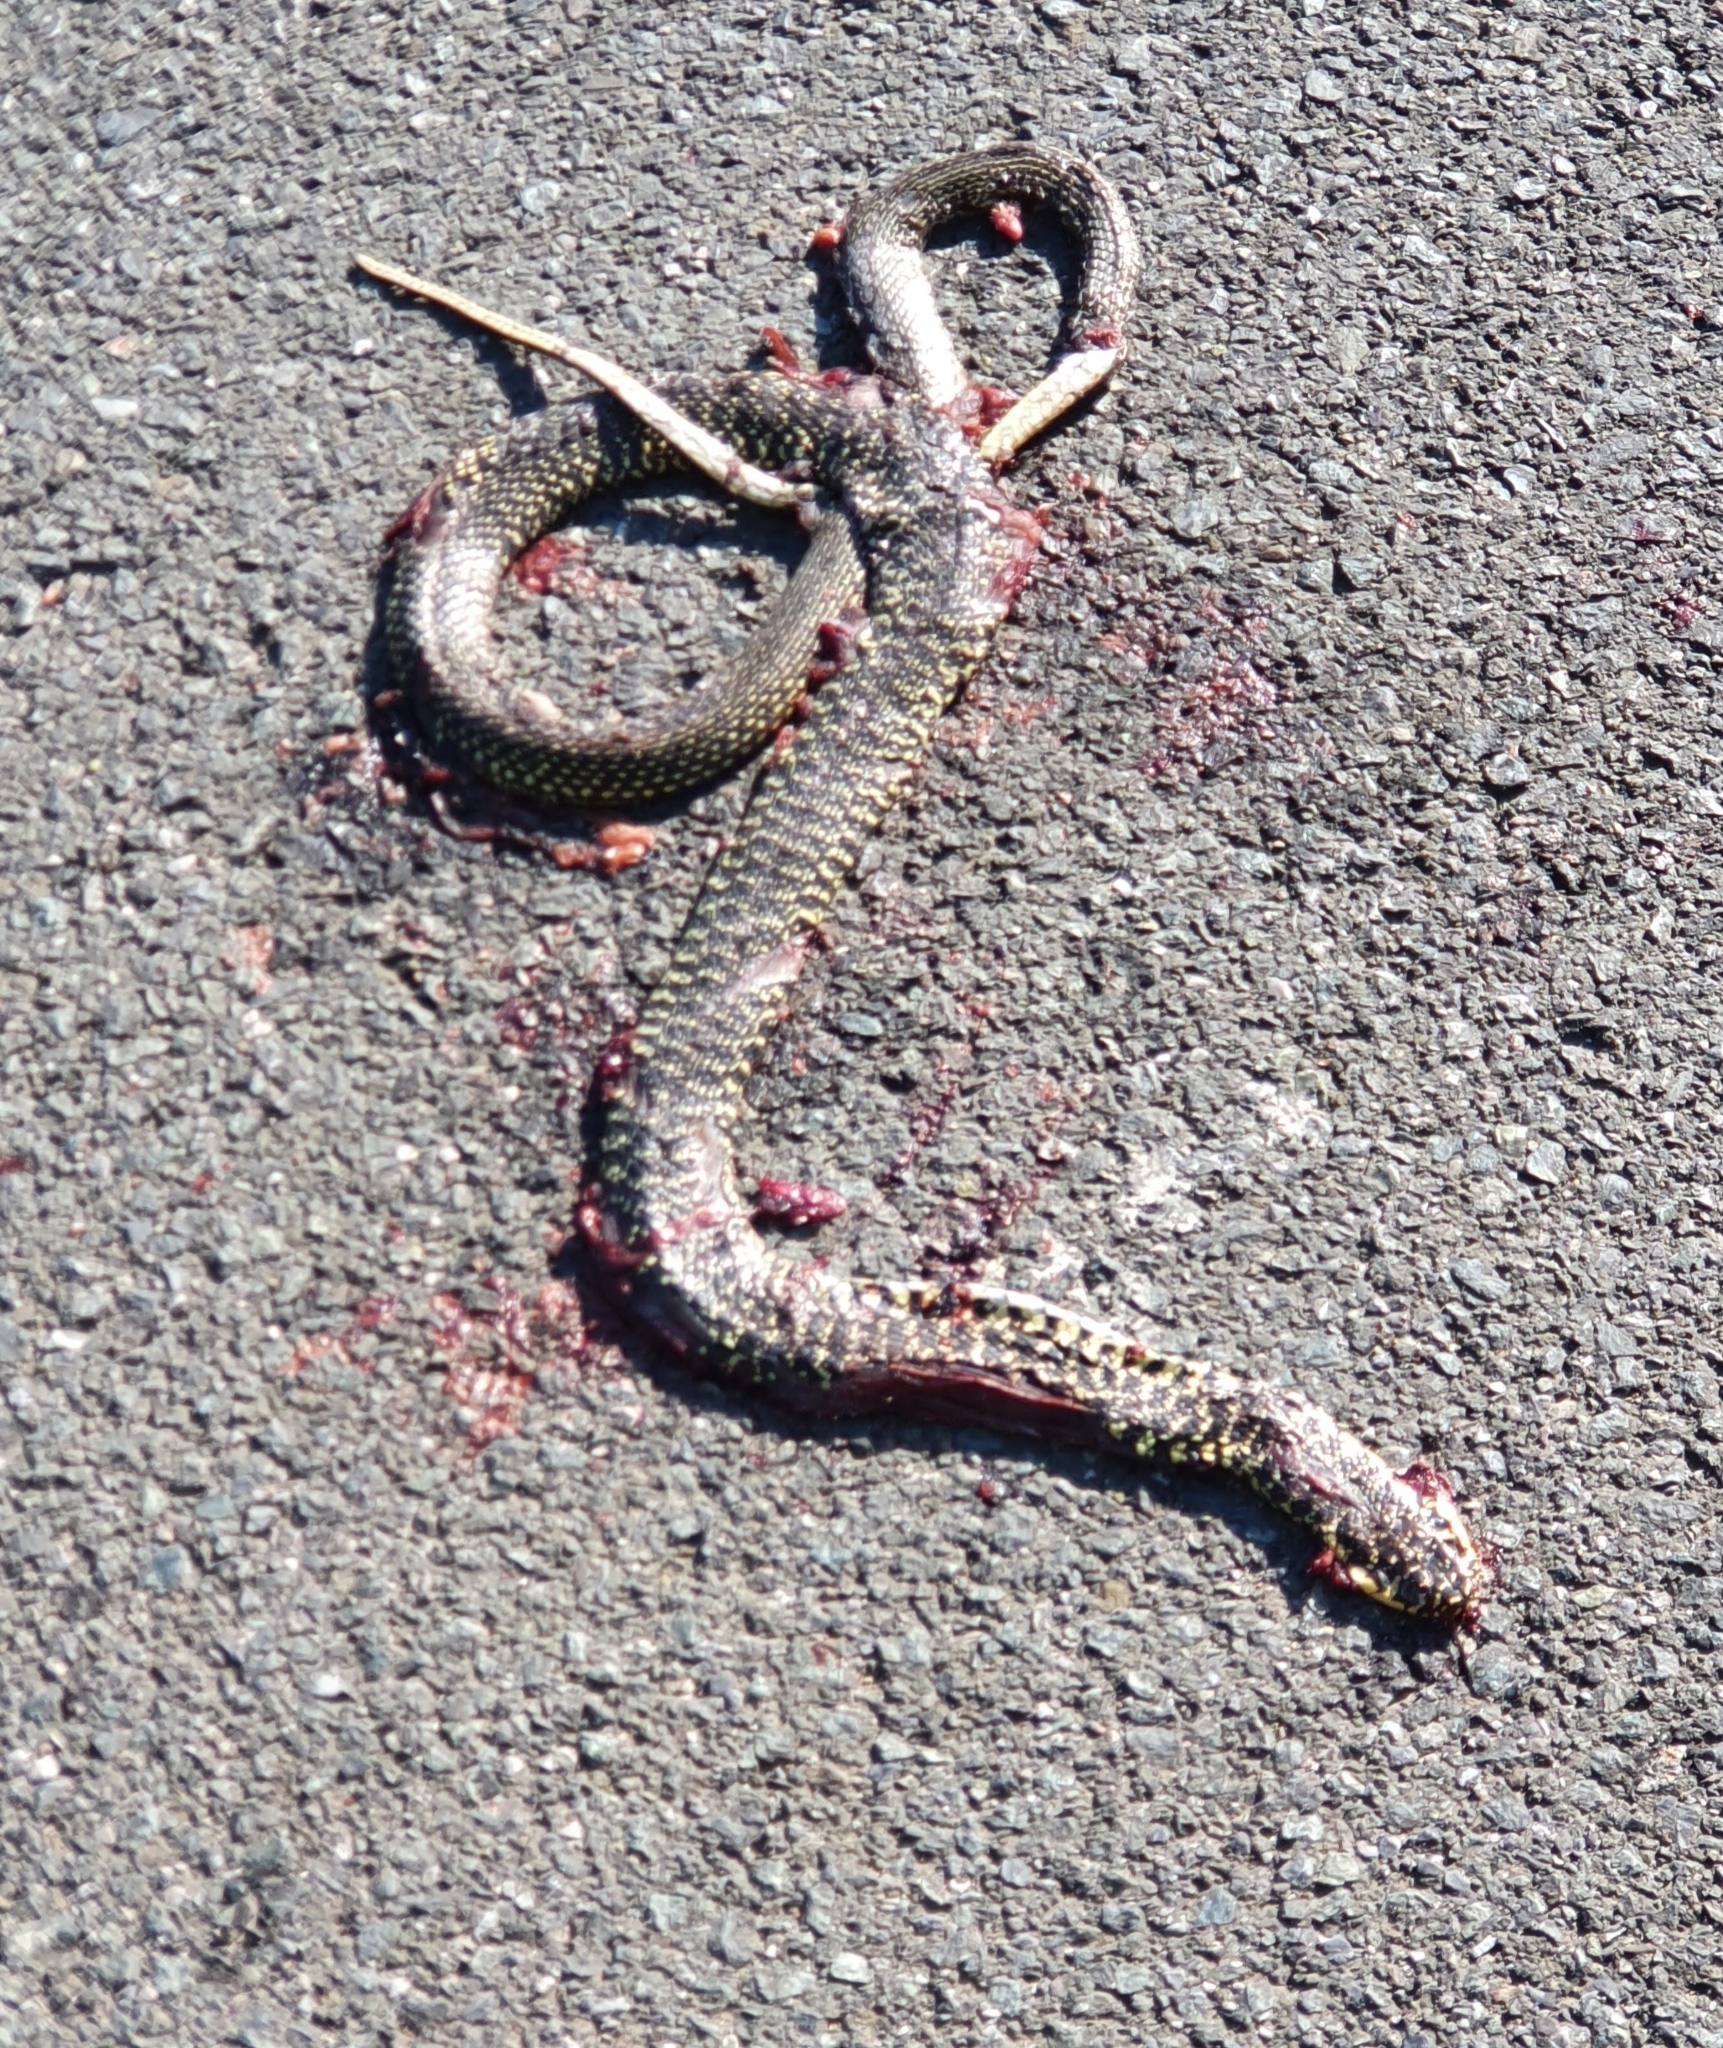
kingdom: Animalia
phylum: Chordata
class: Squamata
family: Colubridae
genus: Hierophis
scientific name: Hierophis viridiflavus
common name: Green whip snake
